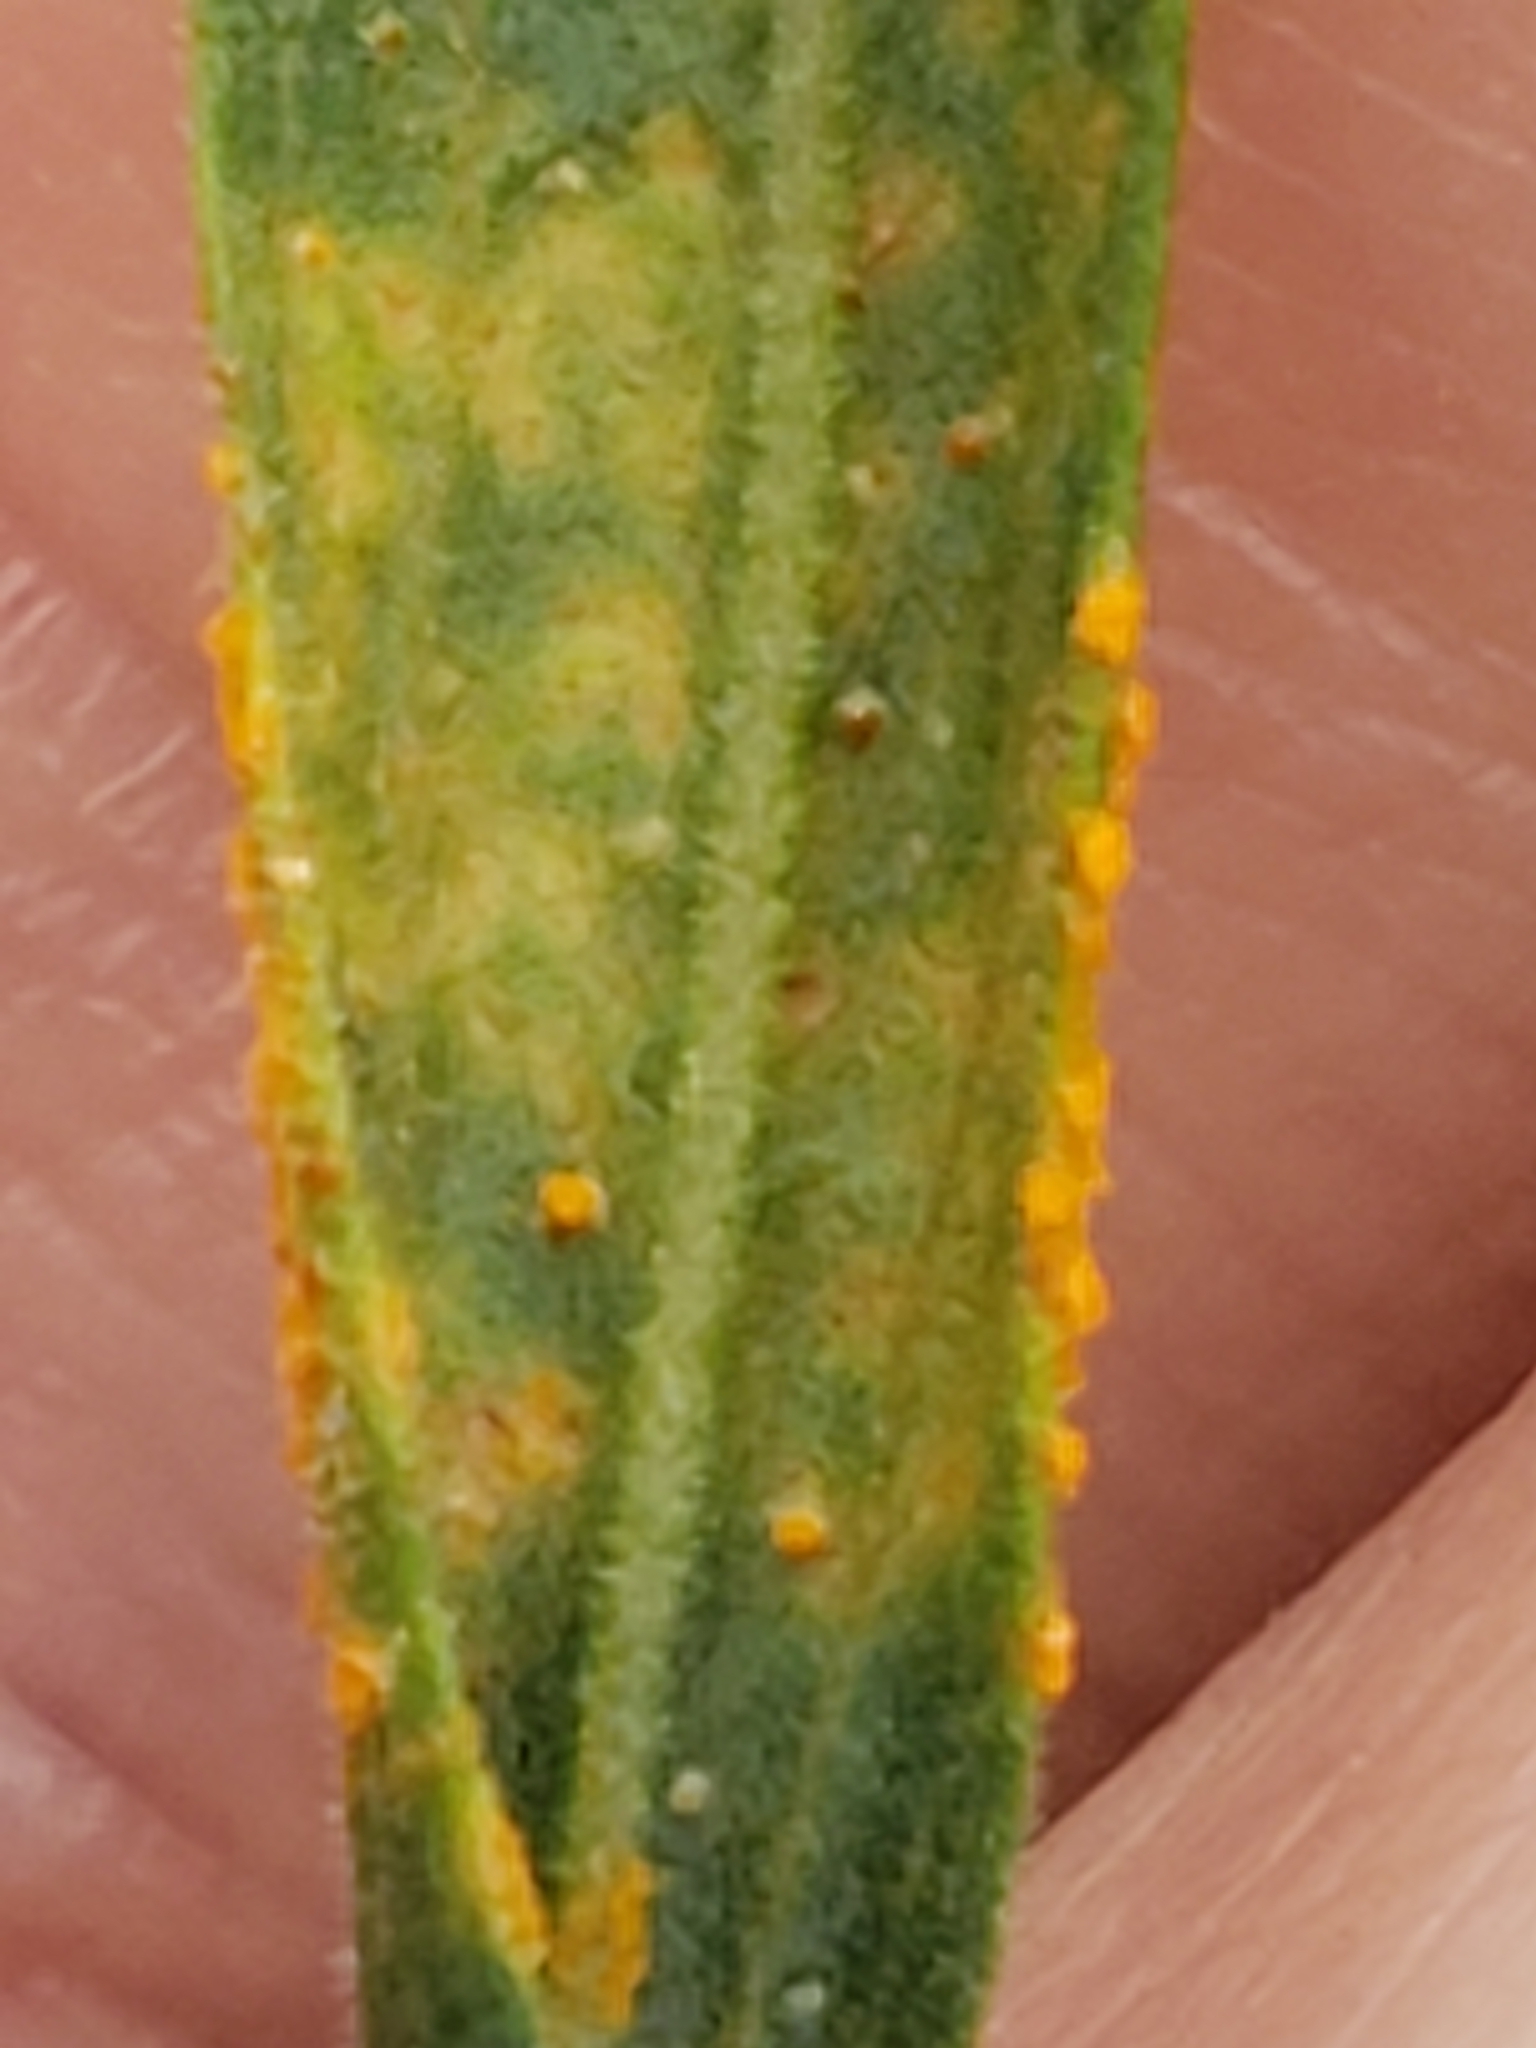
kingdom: Fungi
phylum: Basidiomycota
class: Pucciniomycetes
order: Pucciniales
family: Coleosporiaceae
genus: Coleosporium
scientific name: Coleosporium delicatulum
